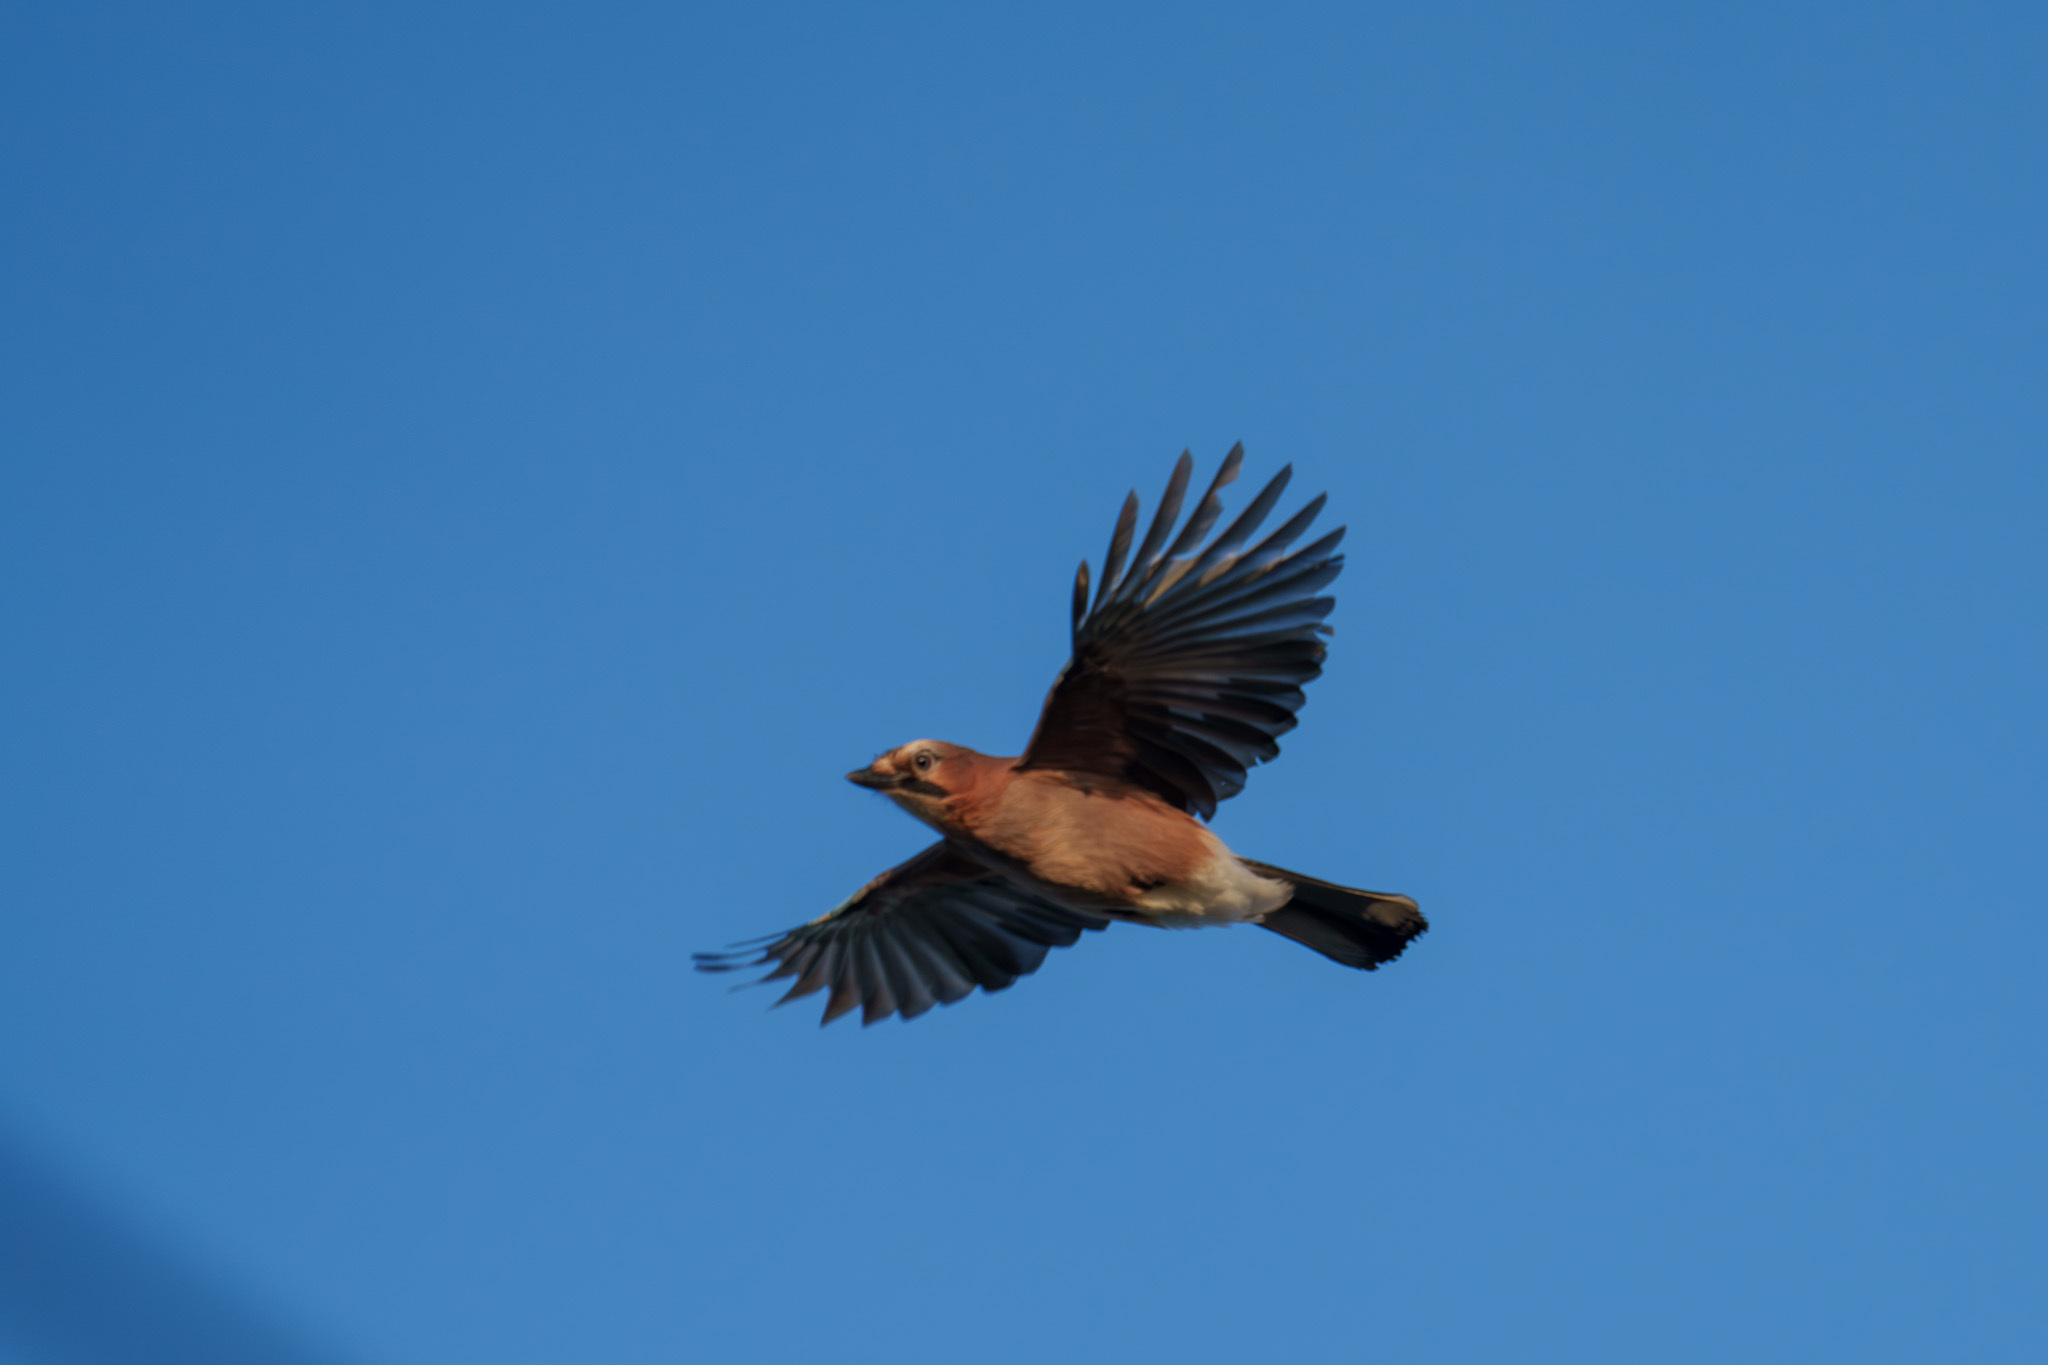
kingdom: Animalia
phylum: Chordata
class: Aves
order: Passeriformes
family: Corvidae
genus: Garrulus
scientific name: Garrulus glandarius
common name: Eurasian jay
